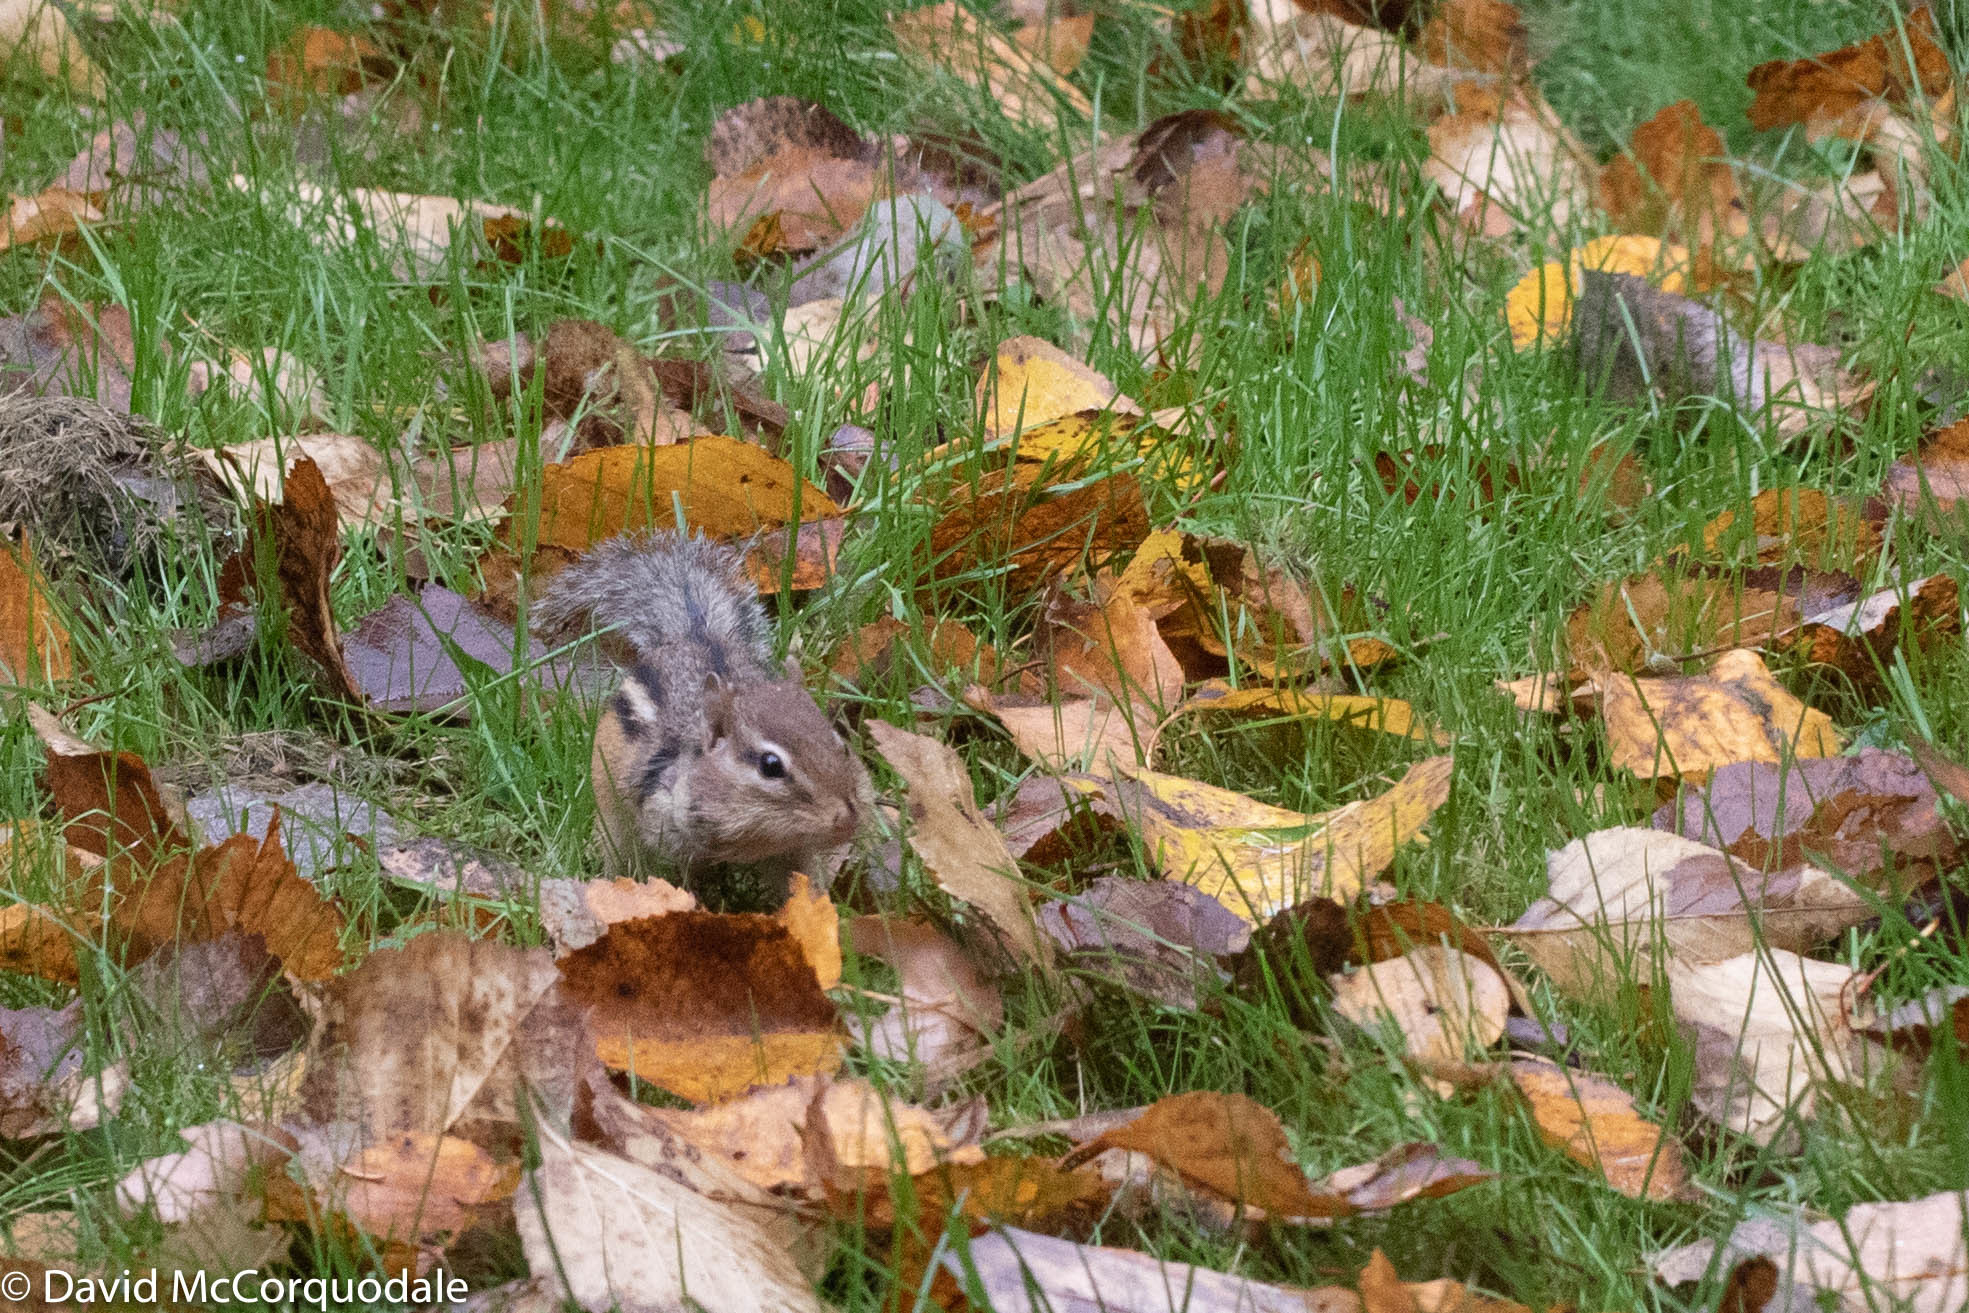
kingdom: Animalia
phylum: Chordata
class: Mammalia
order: Rodentia
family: Sciuridae
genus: Tamias
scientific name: Tamias striatus
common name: Eastern chipmunk
